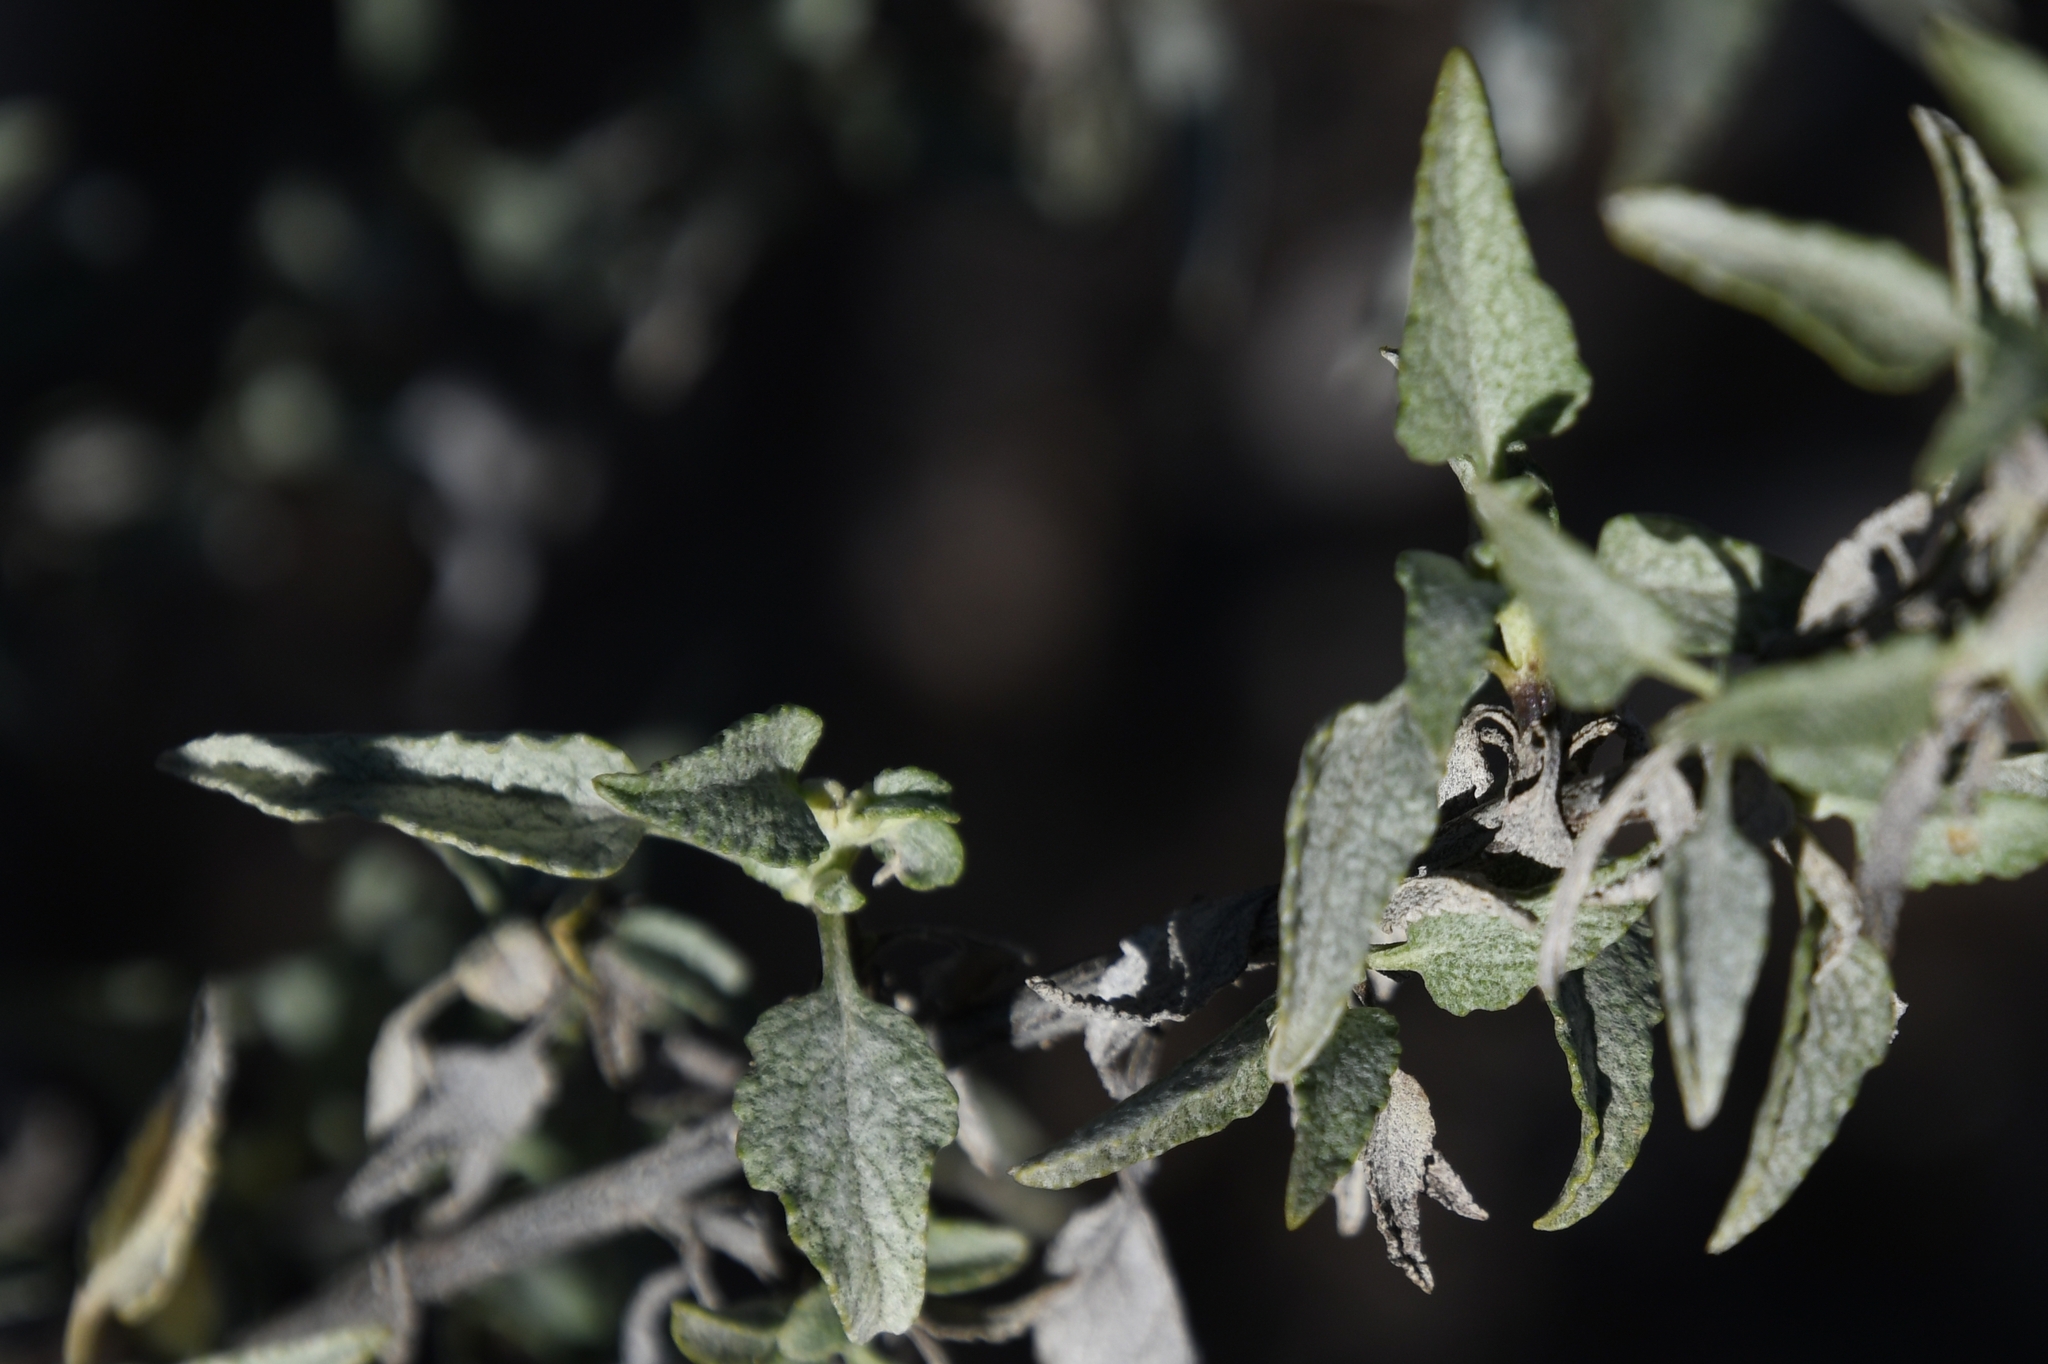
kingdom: Plantae
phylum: Tracheophyta
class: Magnoliopsida
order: Asterales
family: Asteraceae
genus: Ambrosia
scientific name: Ambrosia deltoidea
